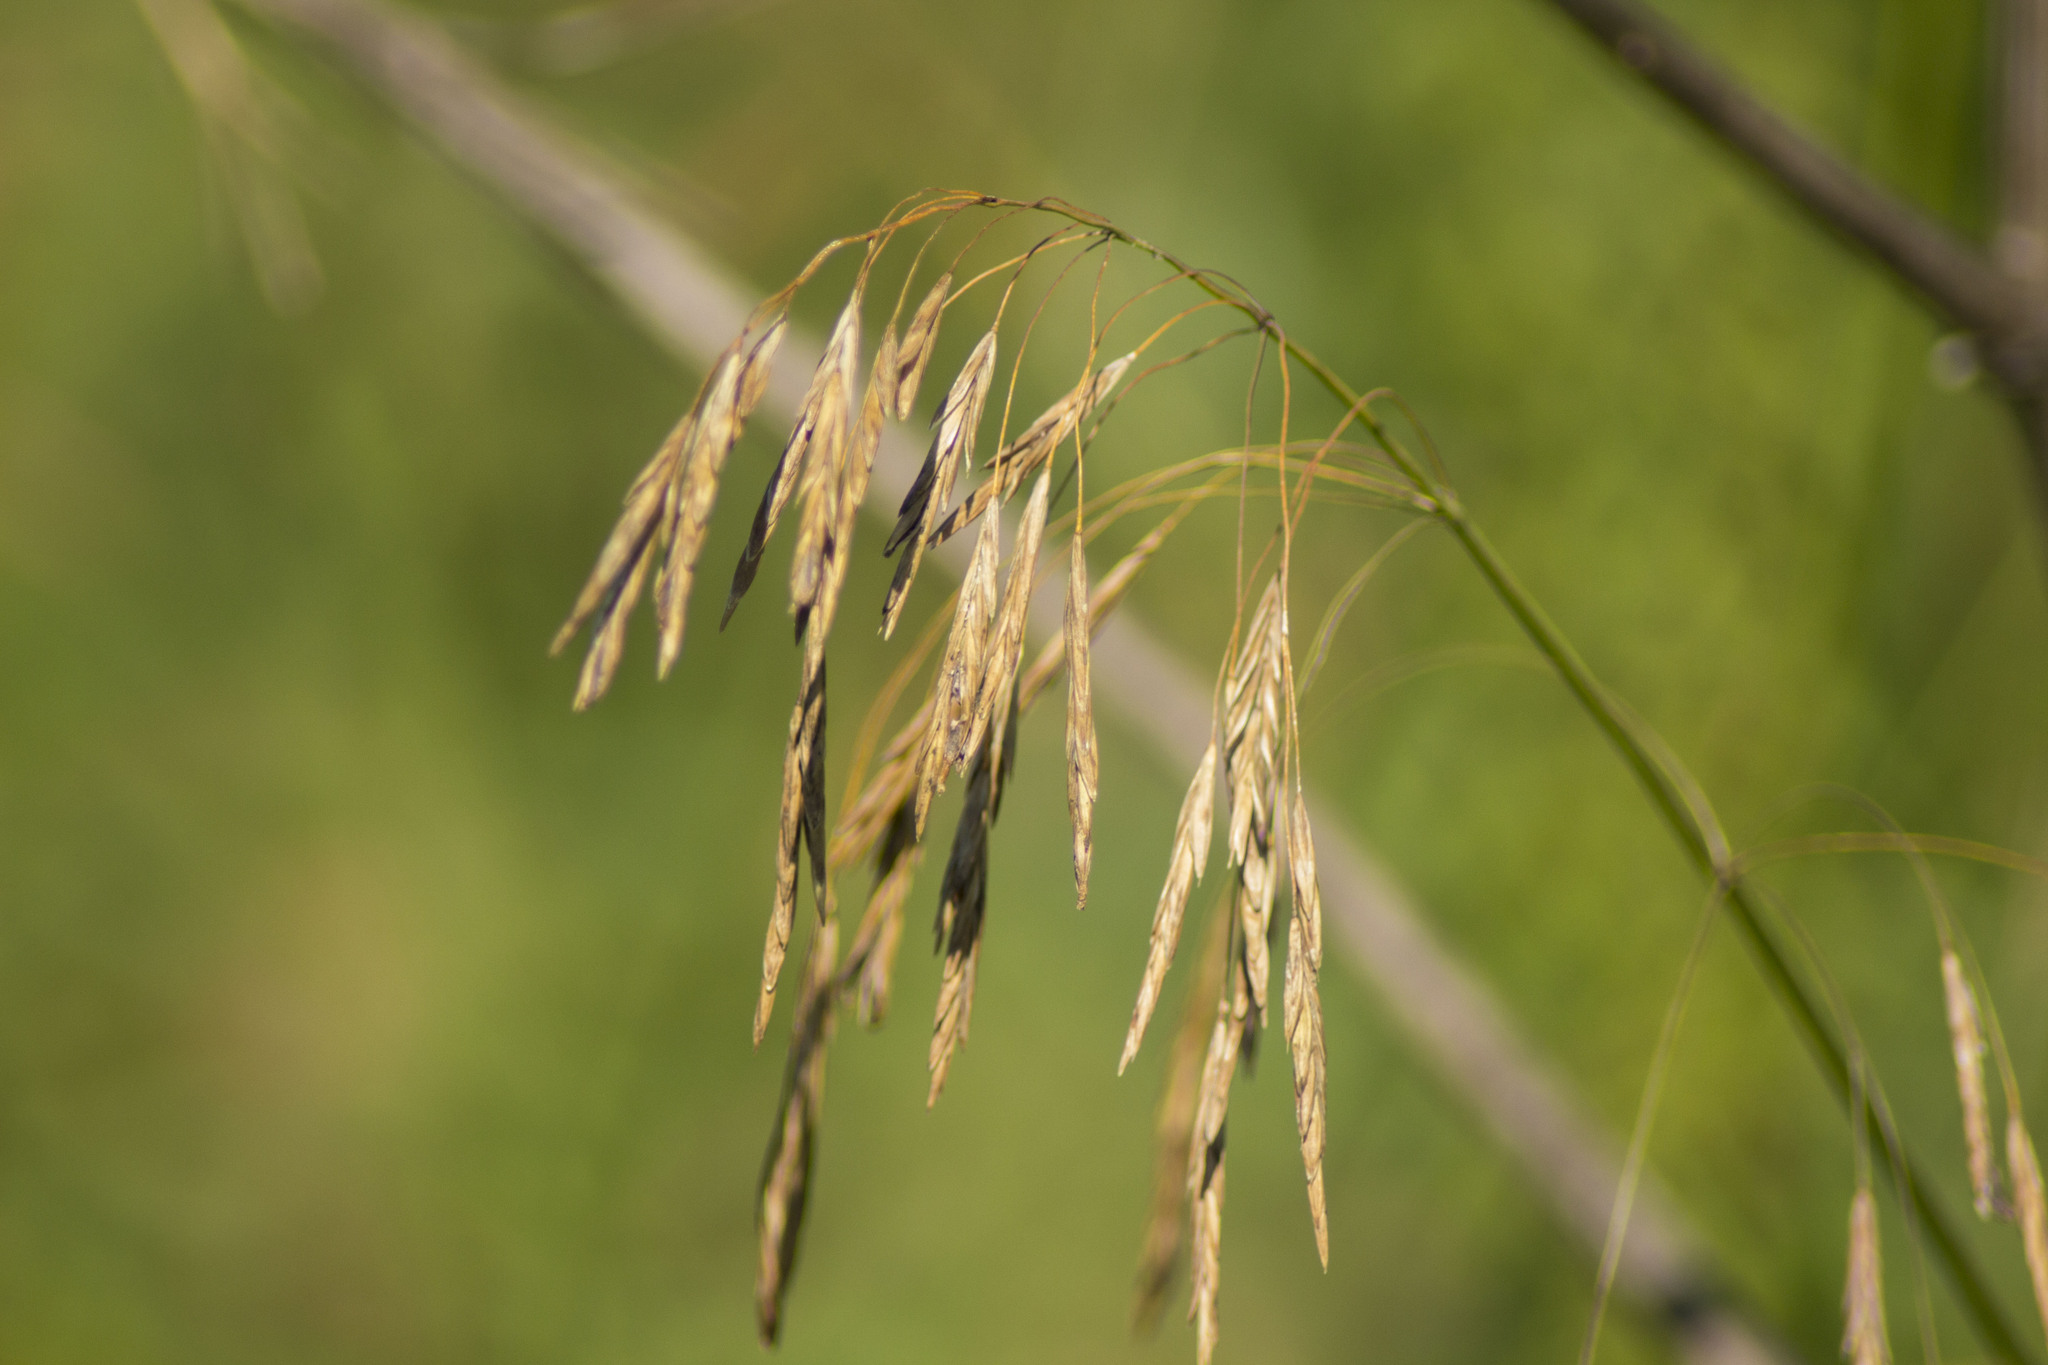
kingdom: Plantae
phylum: Tracheophyta
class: Liliopsida
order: Poales
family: Poaceae
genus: Bromus
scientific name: Bromus inermis
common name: Smooth brome
